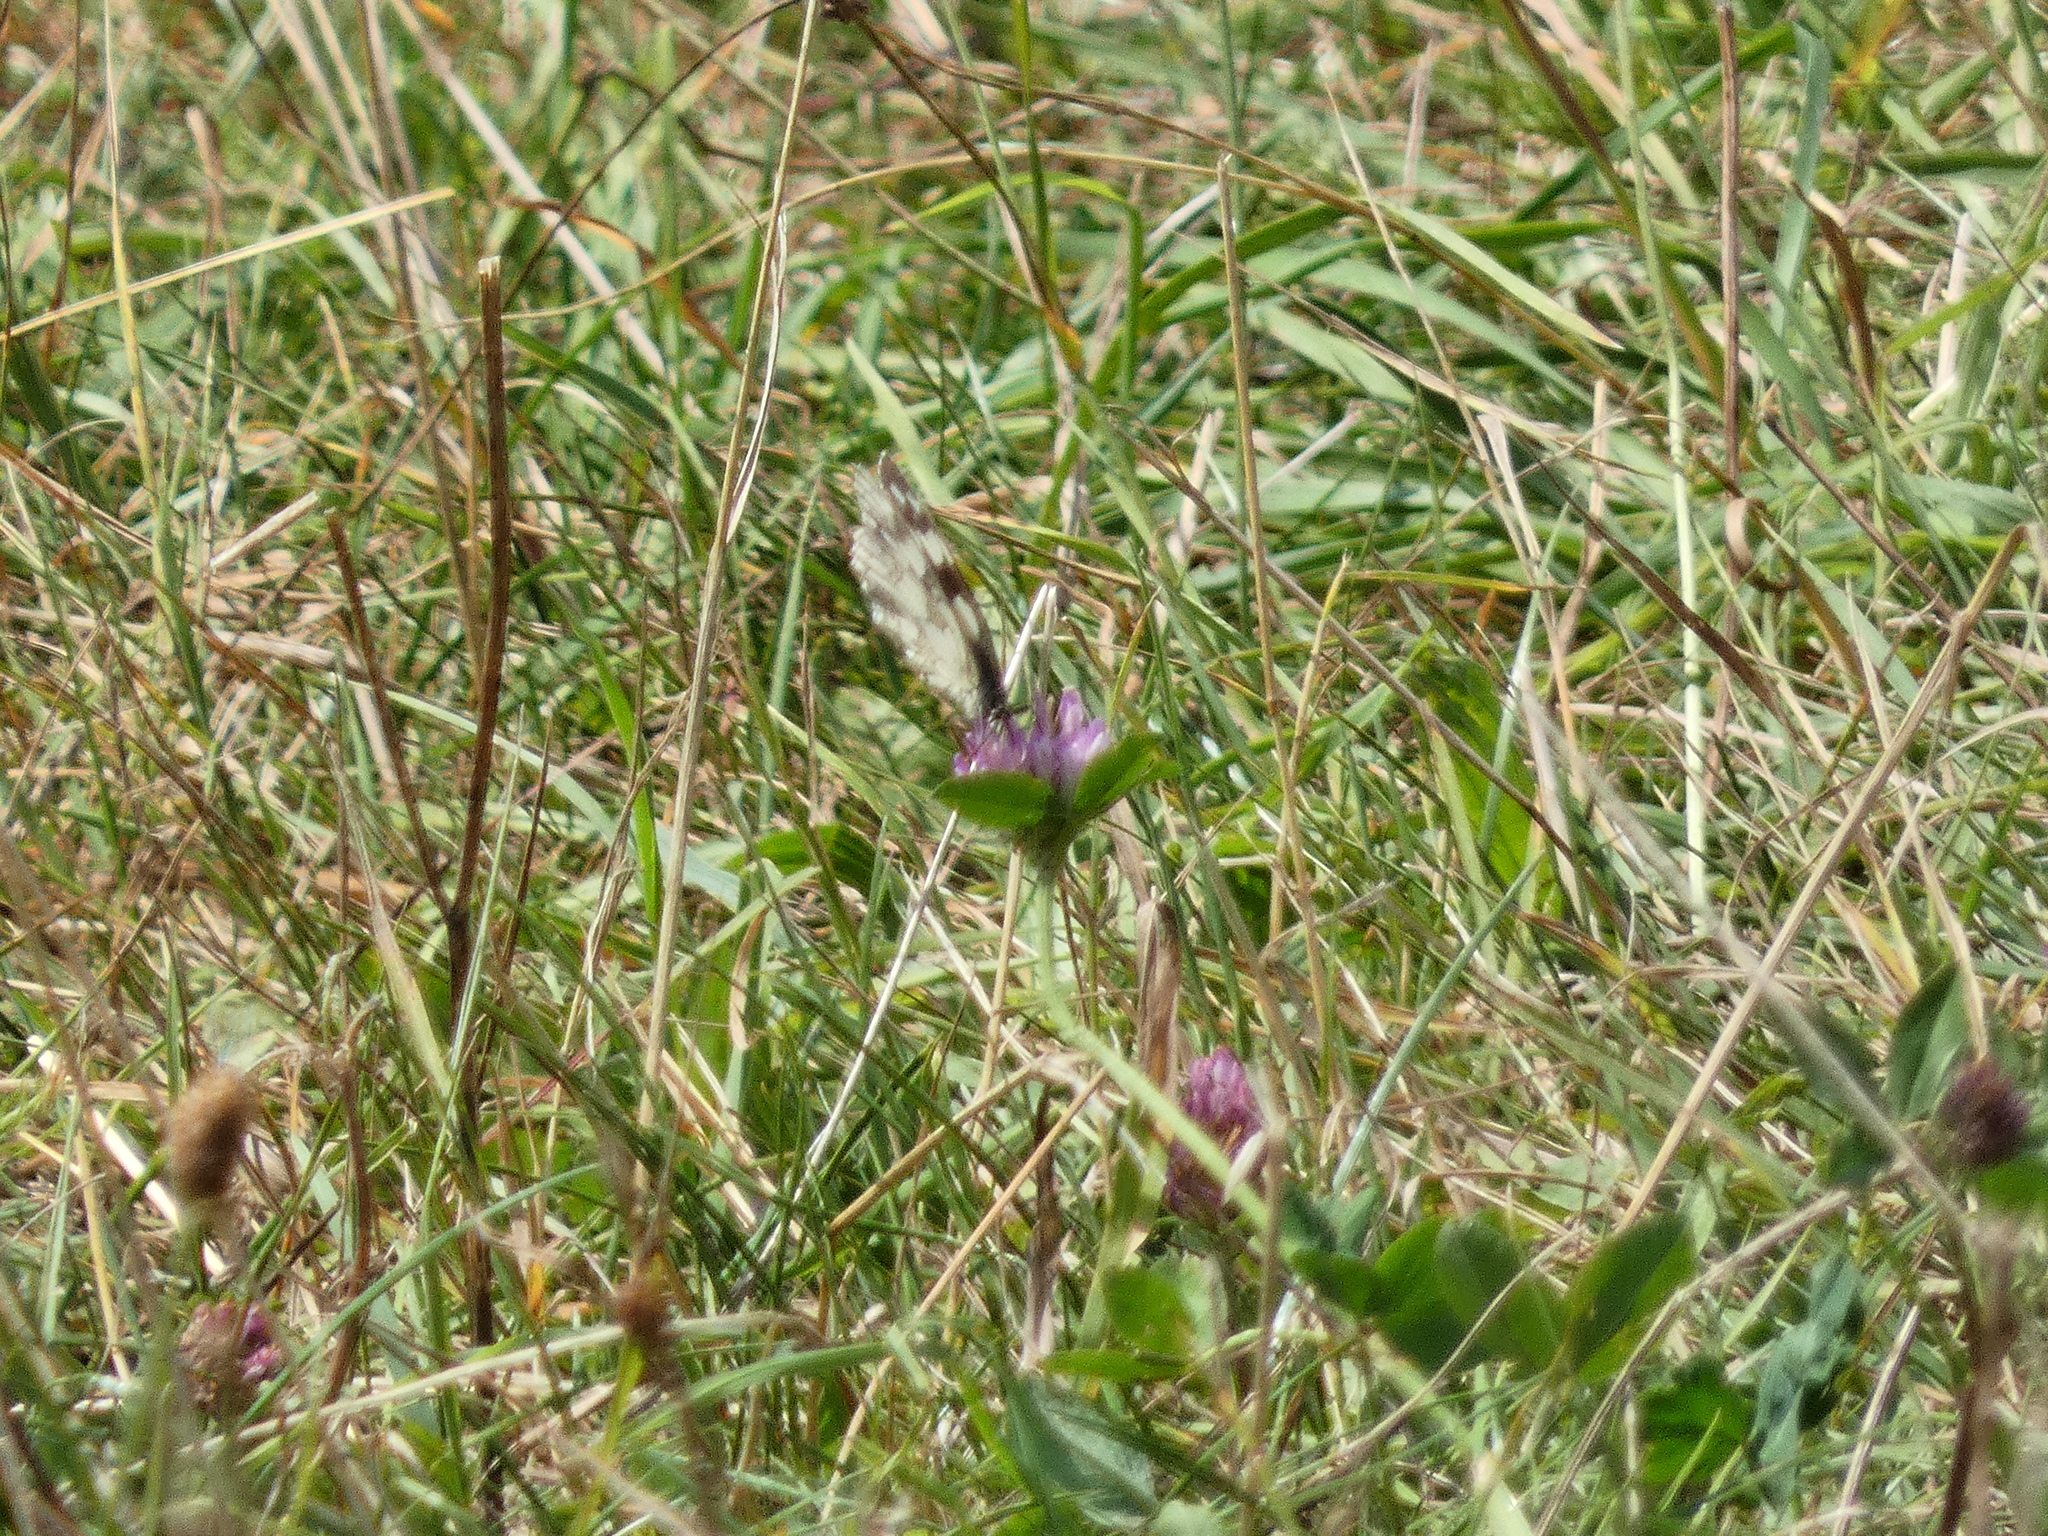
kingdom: Animalia
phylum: Arthropoda
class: Insecta
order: Lepidoptera
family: Nymphalidae
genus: Melanargia
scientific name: Melanargia galathea
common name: Marbled white
